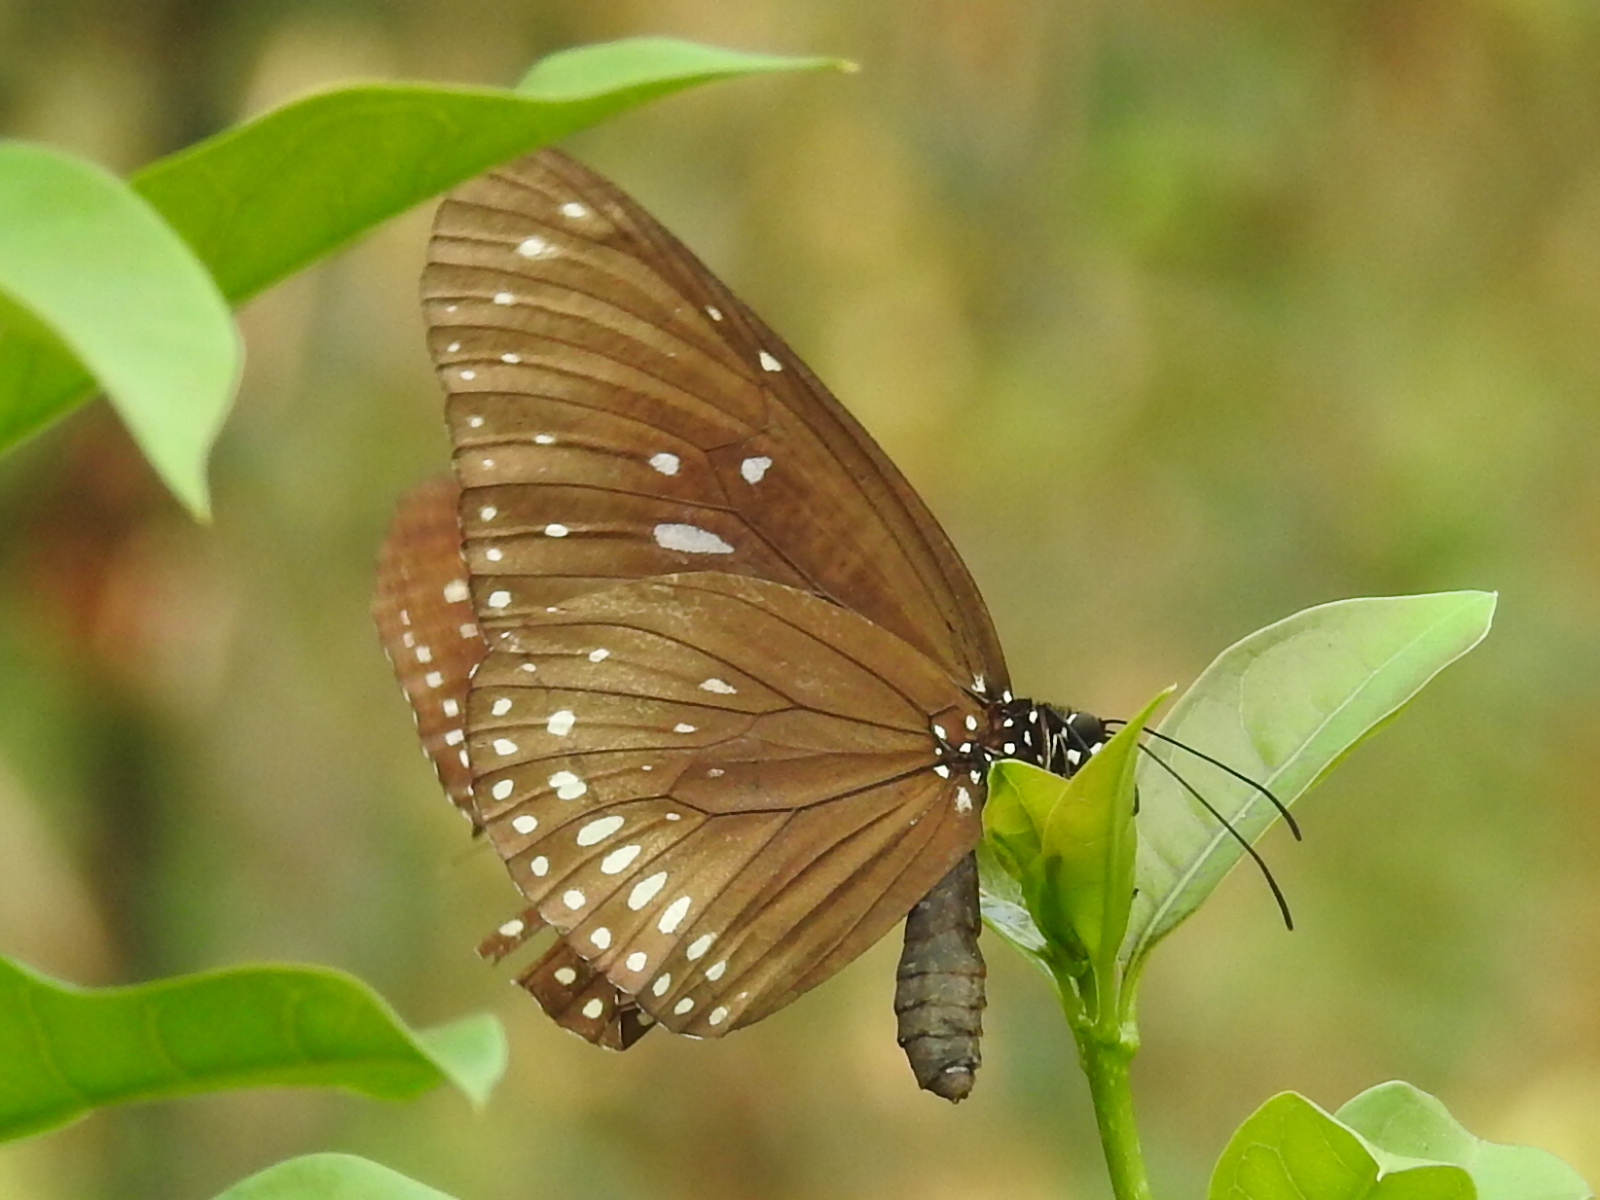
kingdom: Animalia
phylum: Arthropoda
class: Insecta
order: Lepidoptera
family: Nymphalidae
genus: Euploea
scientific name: Euploea midamus
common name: Blue-spotted crow butterfly
